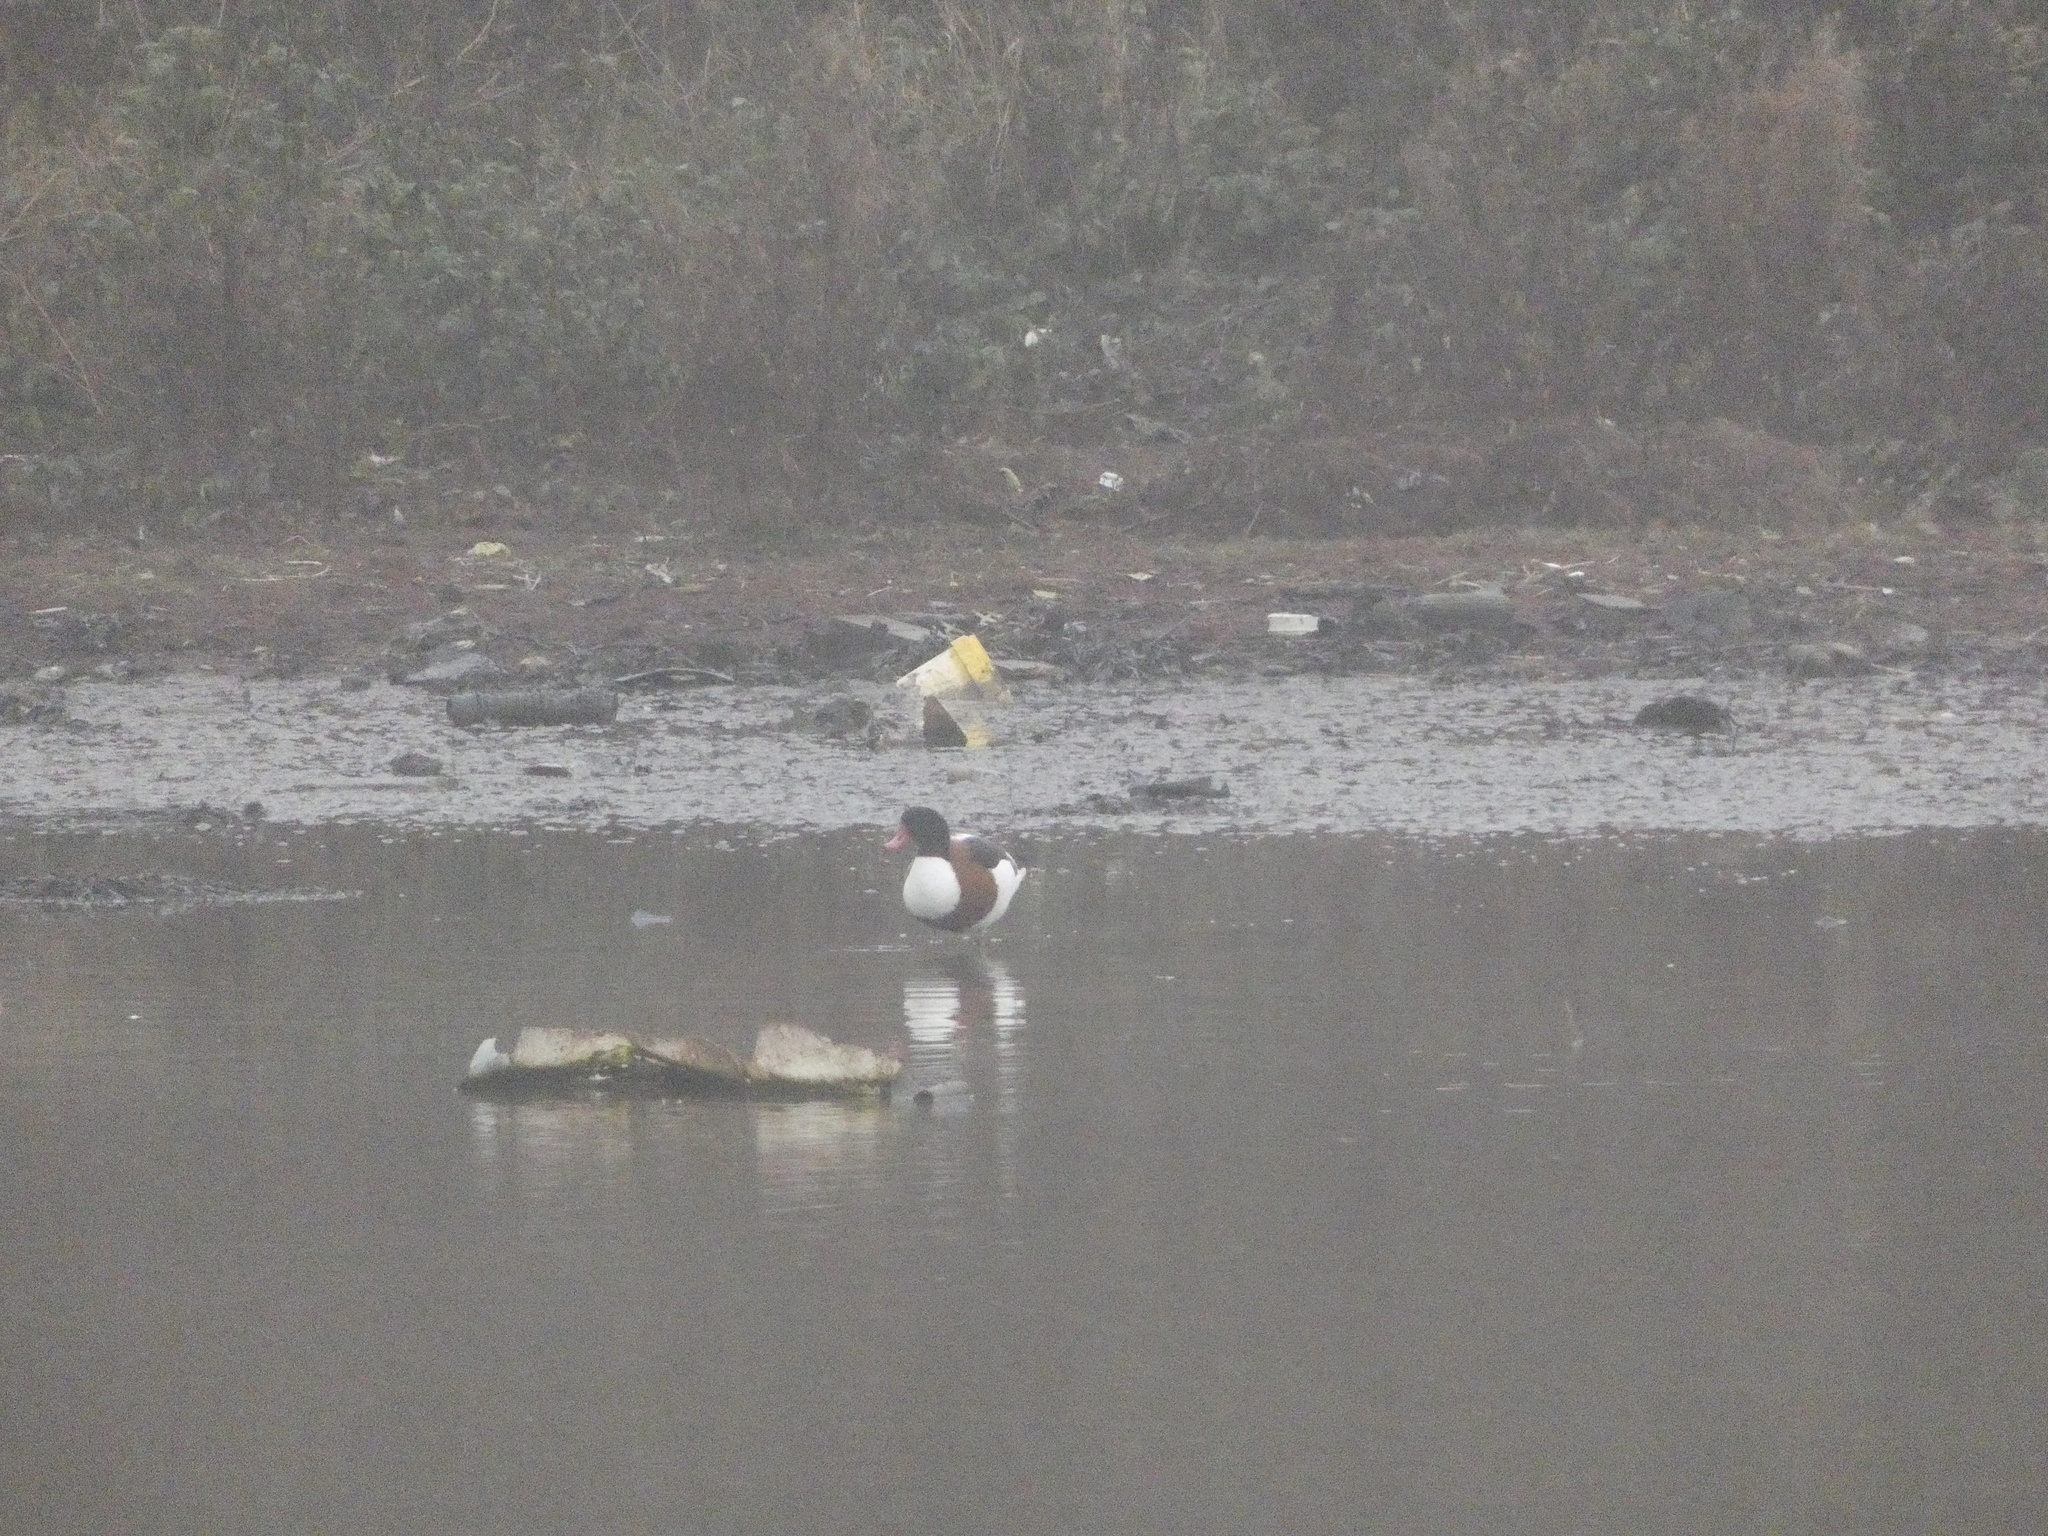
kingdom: Animalia
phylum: Chordata
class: Aves
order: Anseriformes
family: Anatidae
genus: Tadorna
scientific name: Tadorna tadorna
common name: Common shelduck
